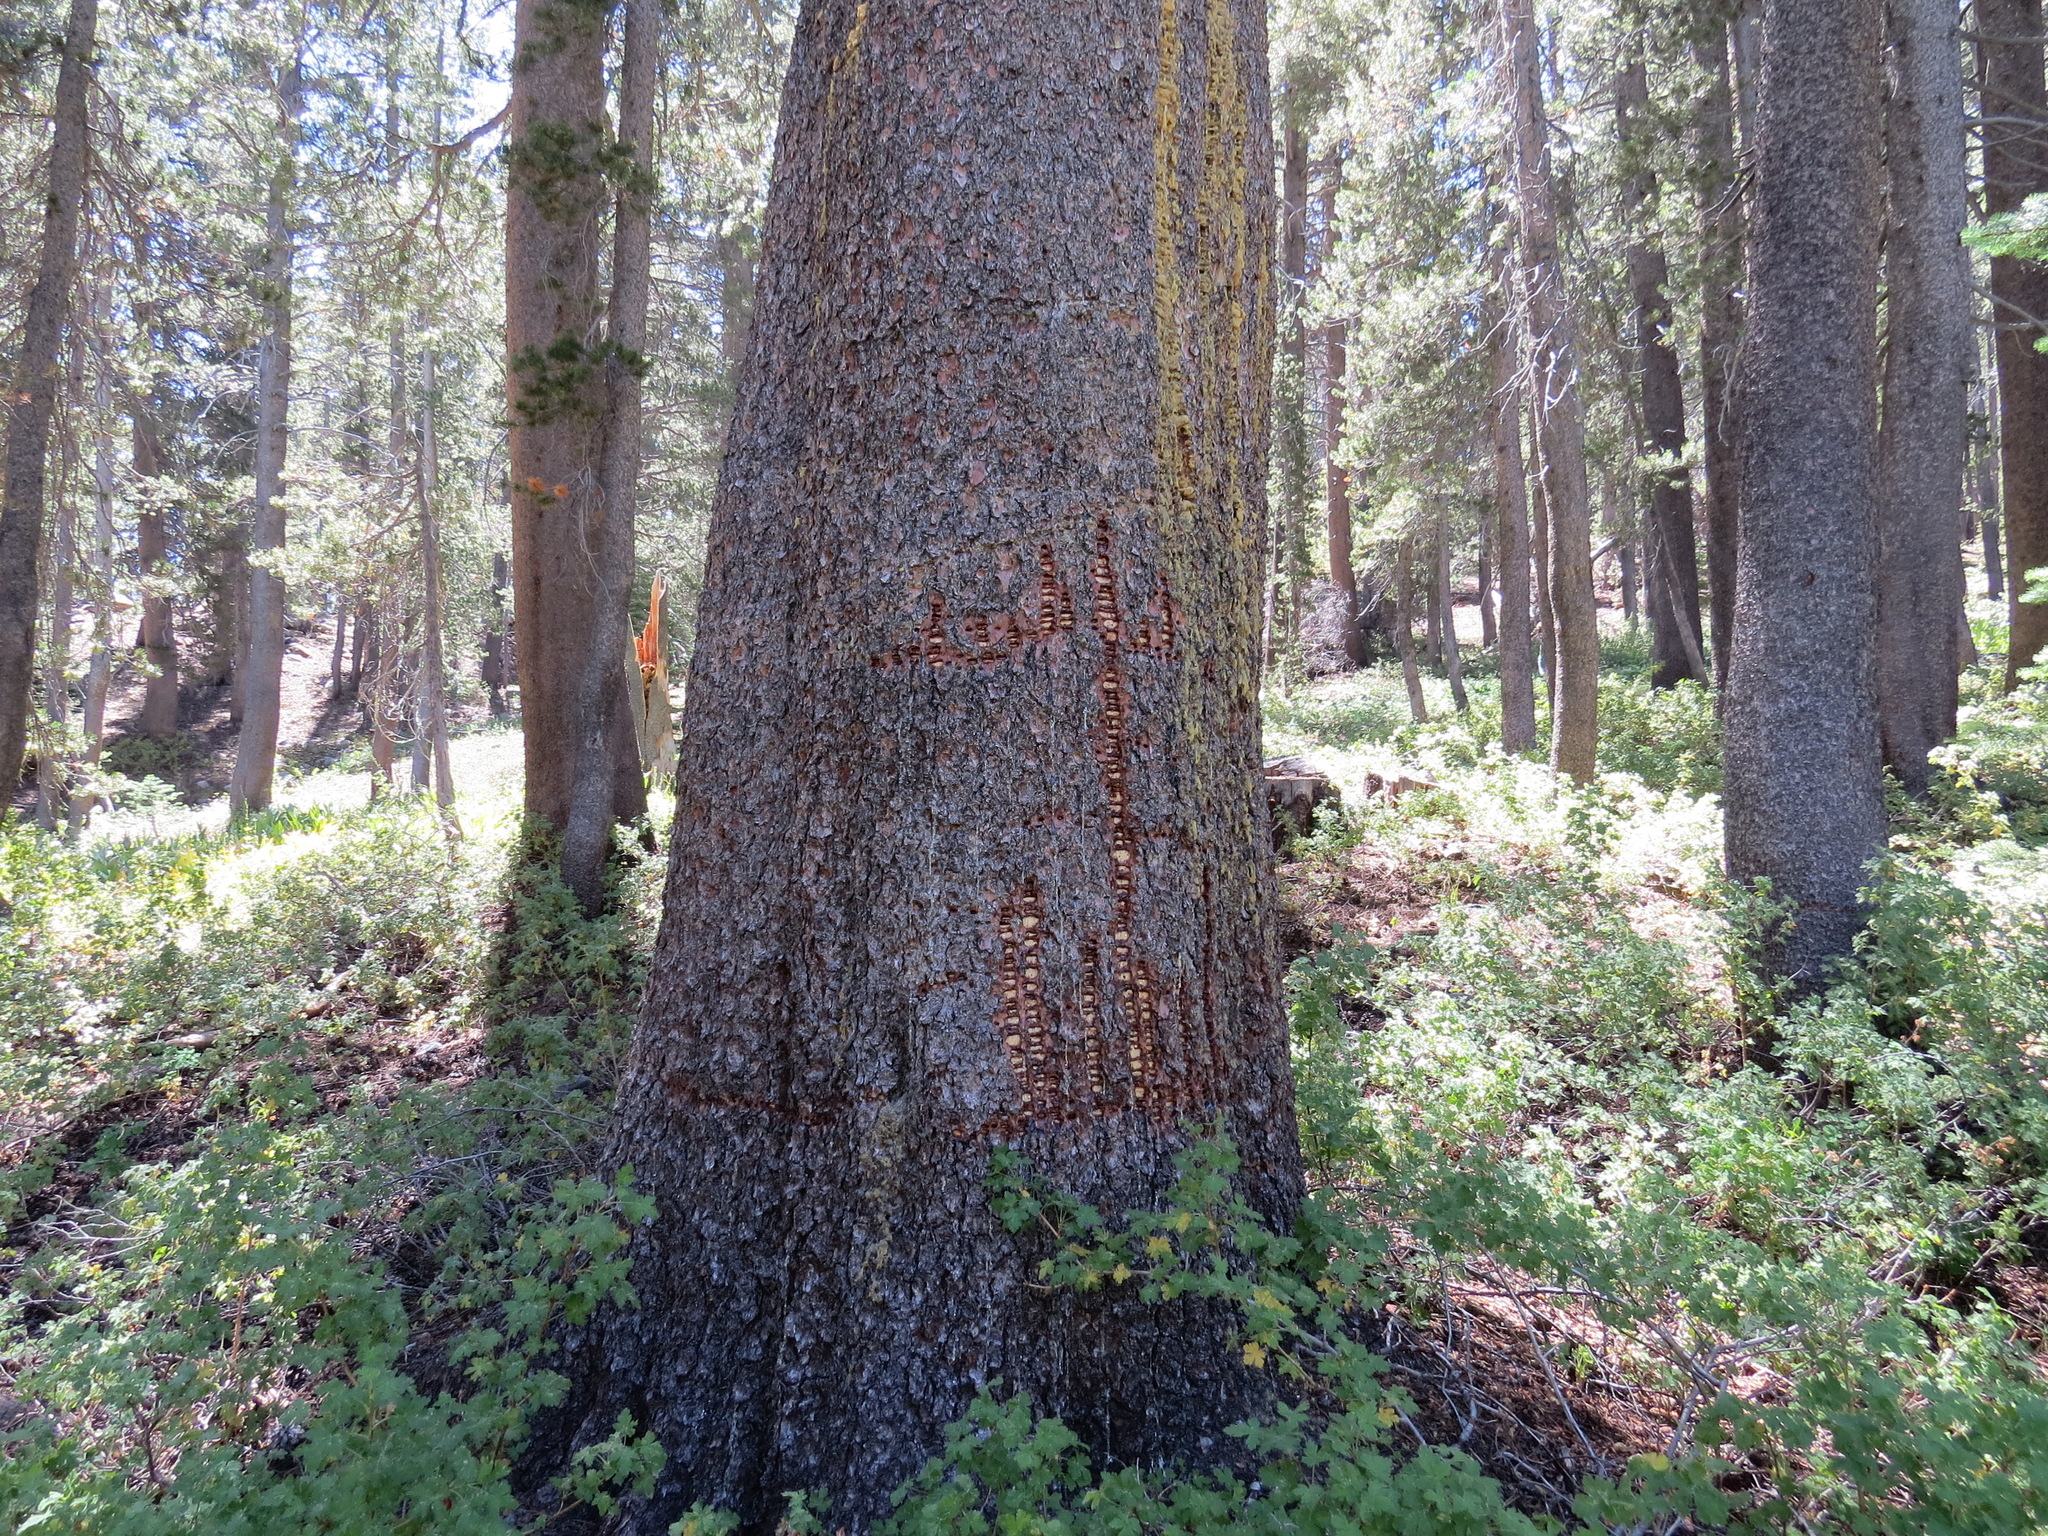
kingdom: Animalia
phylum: Chordata
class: Aves
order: Piciformes
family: Picidae
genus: Sphyrapicus
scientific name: Sphyrapicus
